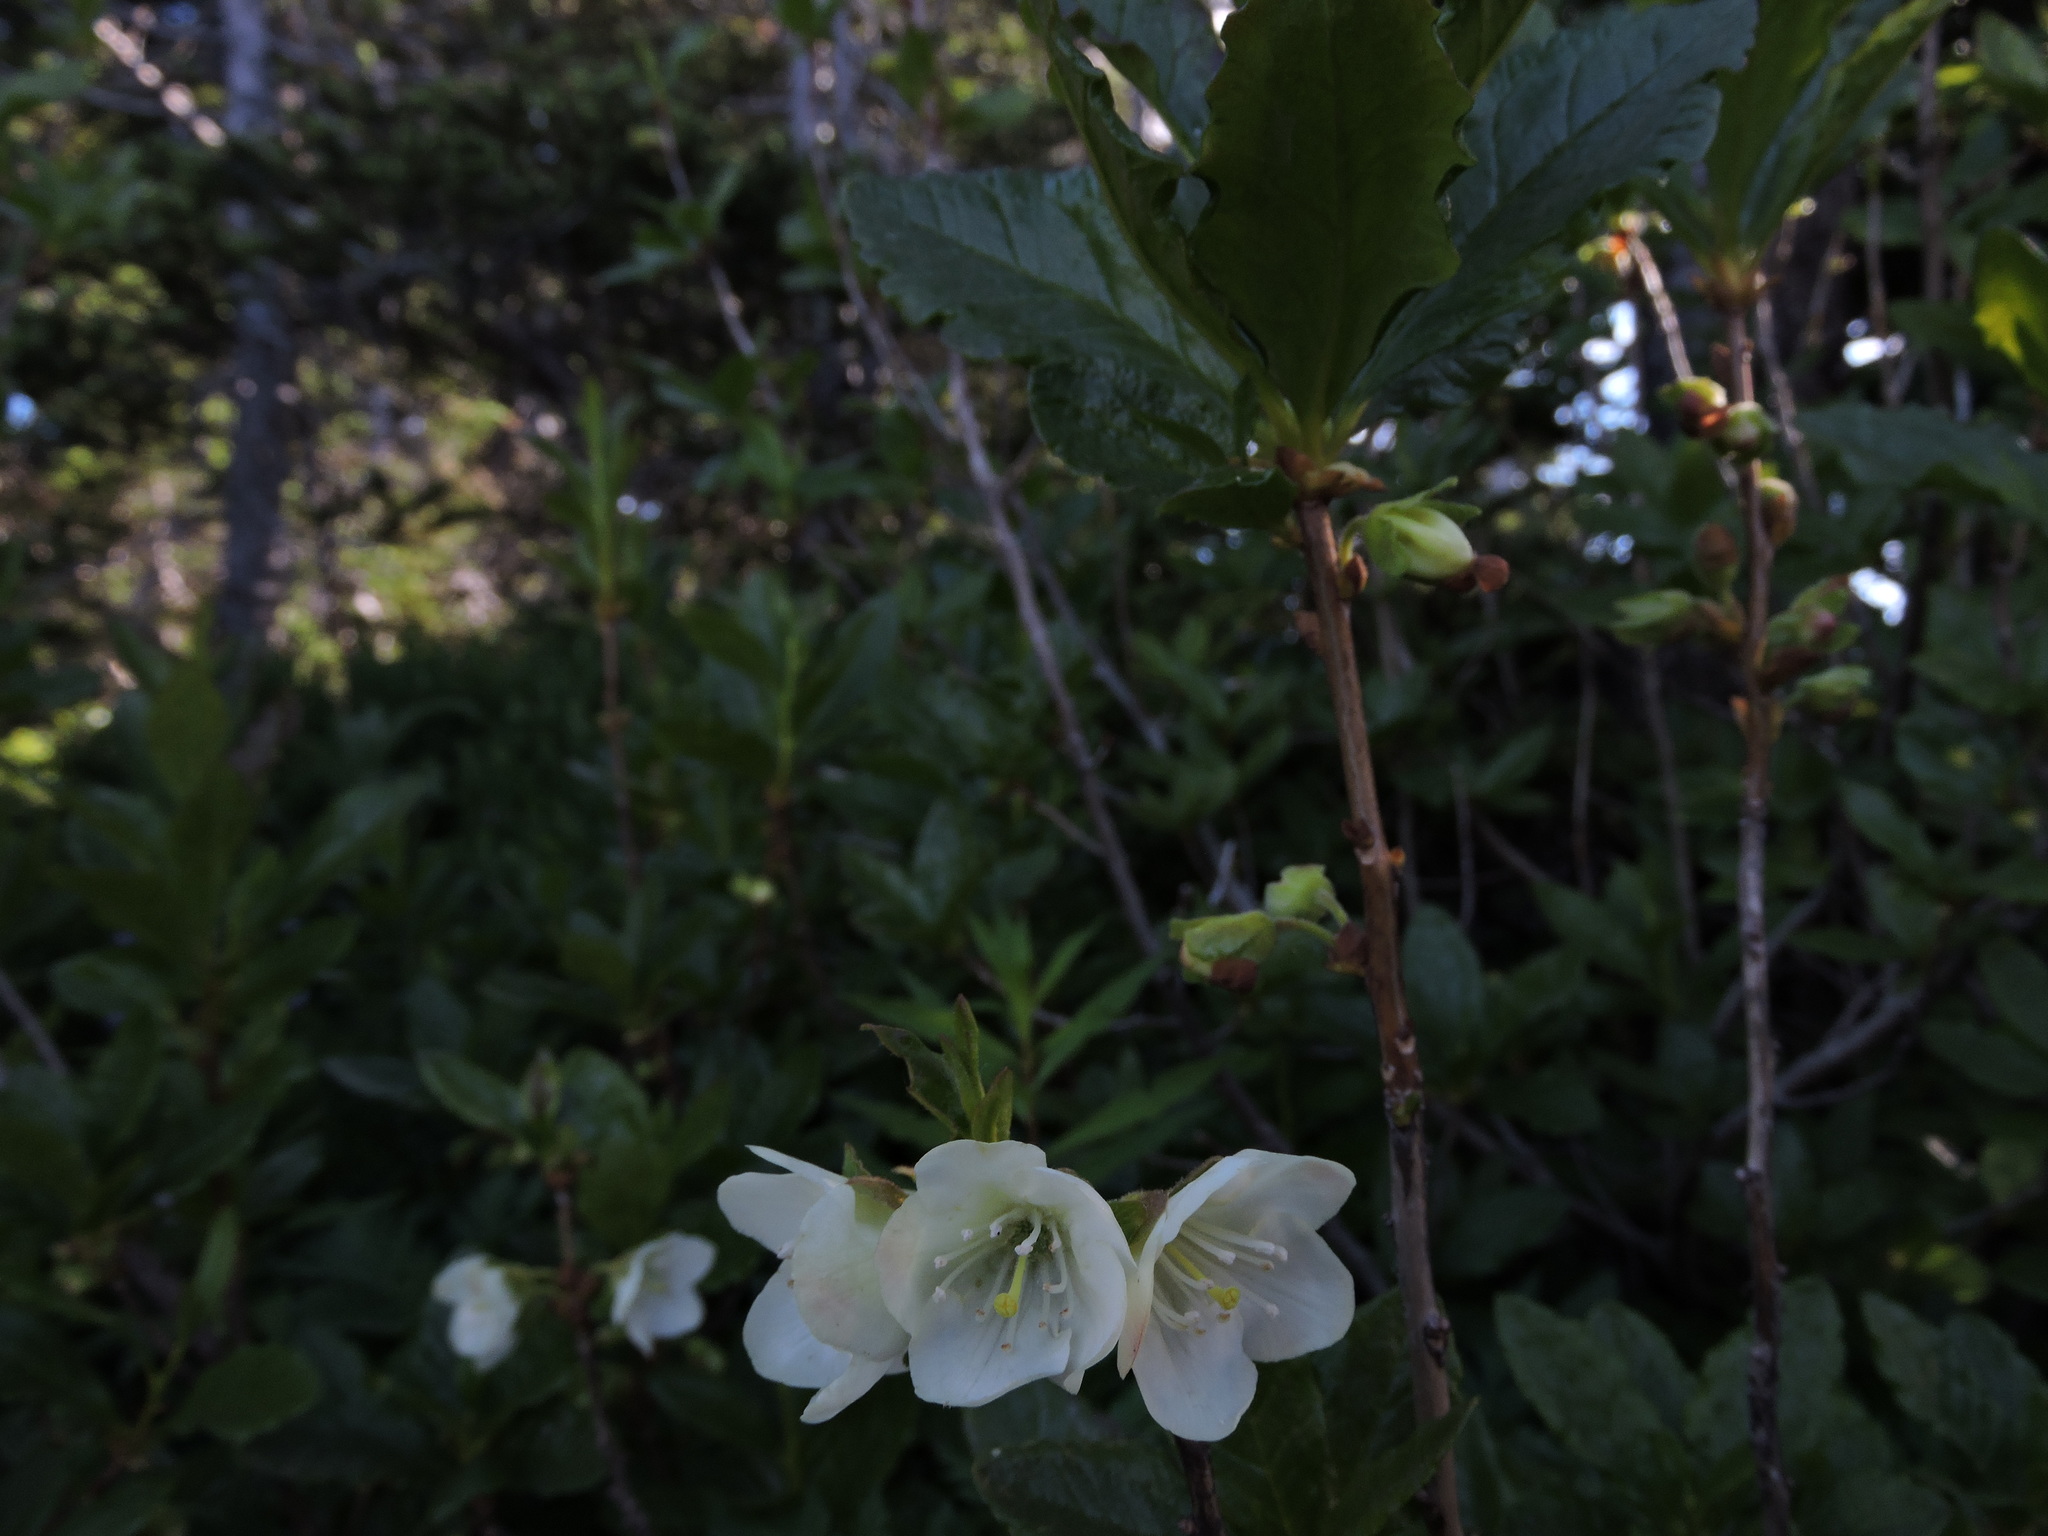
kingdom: Plantae
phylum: Tracheophyta
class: Magnoliopsida
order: Ericales
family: Ericaceae
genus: Rhododendron
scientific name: Rhododendron albiflorum
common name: White rhododendron
